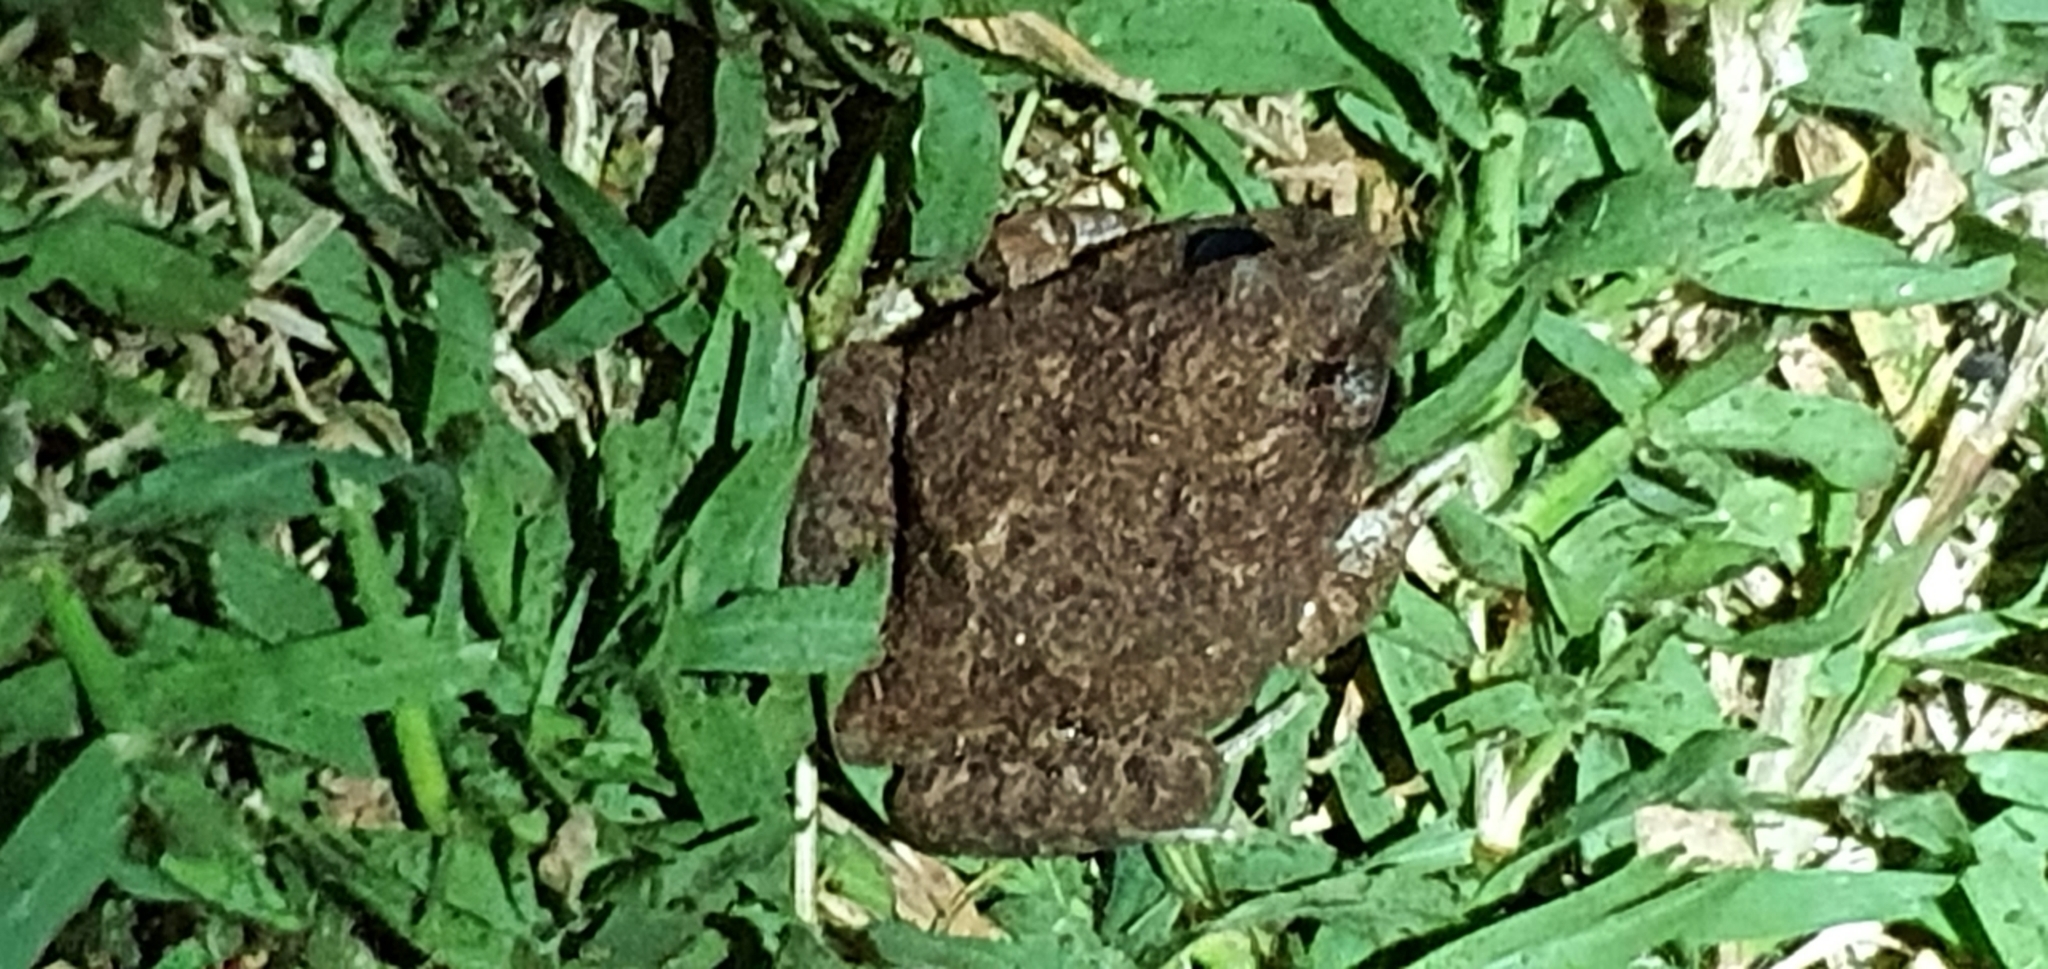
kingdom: Animalia
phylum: Chordata
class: Amphibia
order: Anura
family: Limnodynastidae
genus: Platyplectrum
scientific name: Platyplectrum ornatum
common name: Ornate burrowing frog
